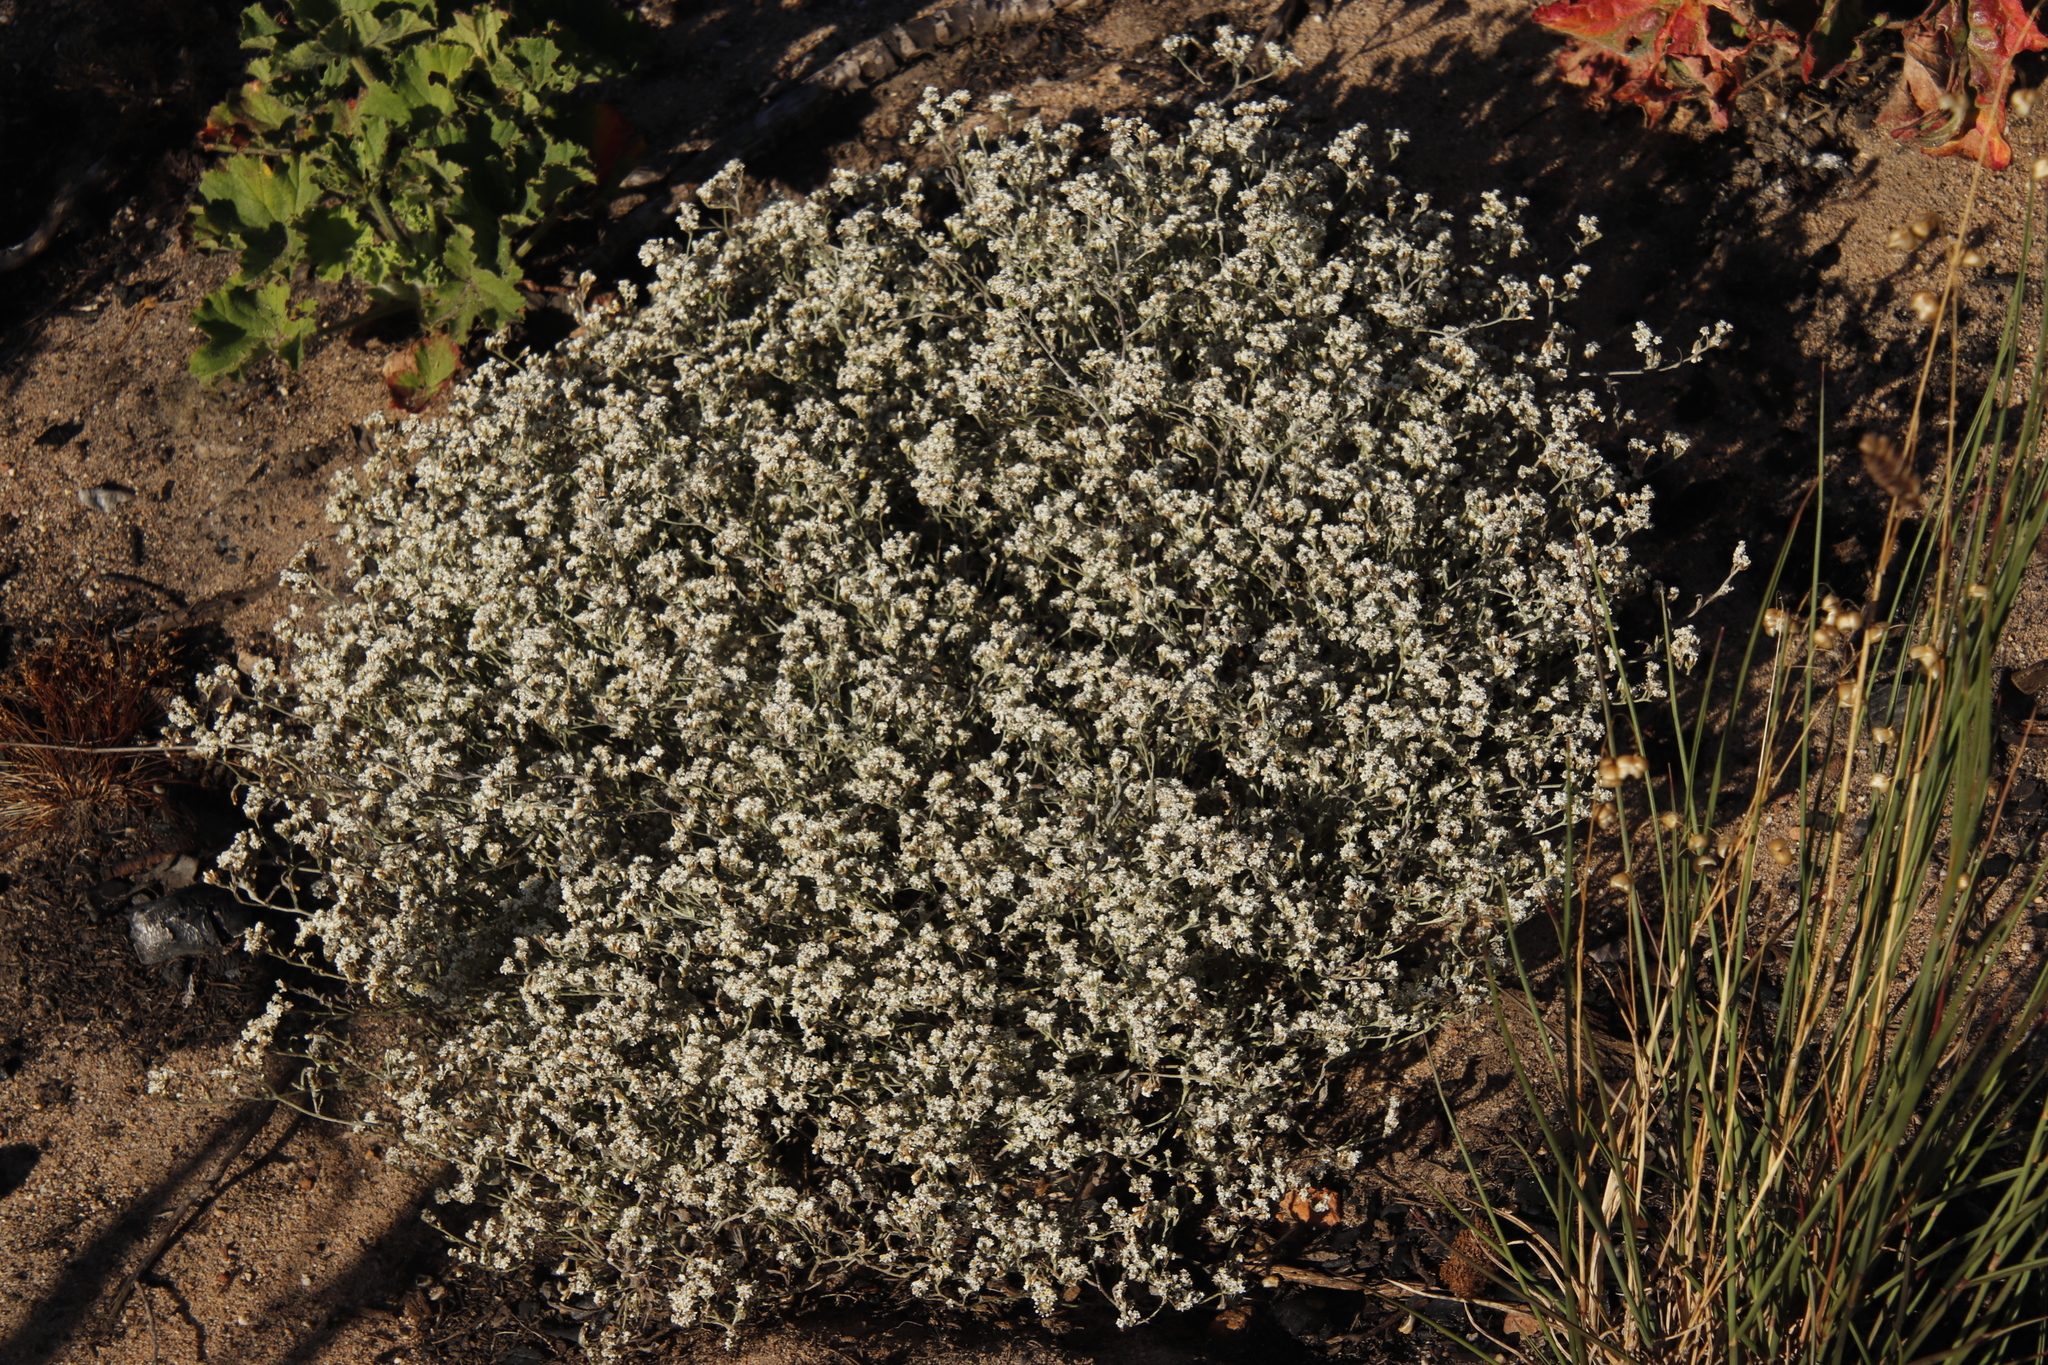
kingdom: Plantae
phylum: Tracheophyta
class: Magnoliopsida
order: Asterales
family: Asteraceae
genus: Helichrysum
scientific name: Helichrysum indicum
